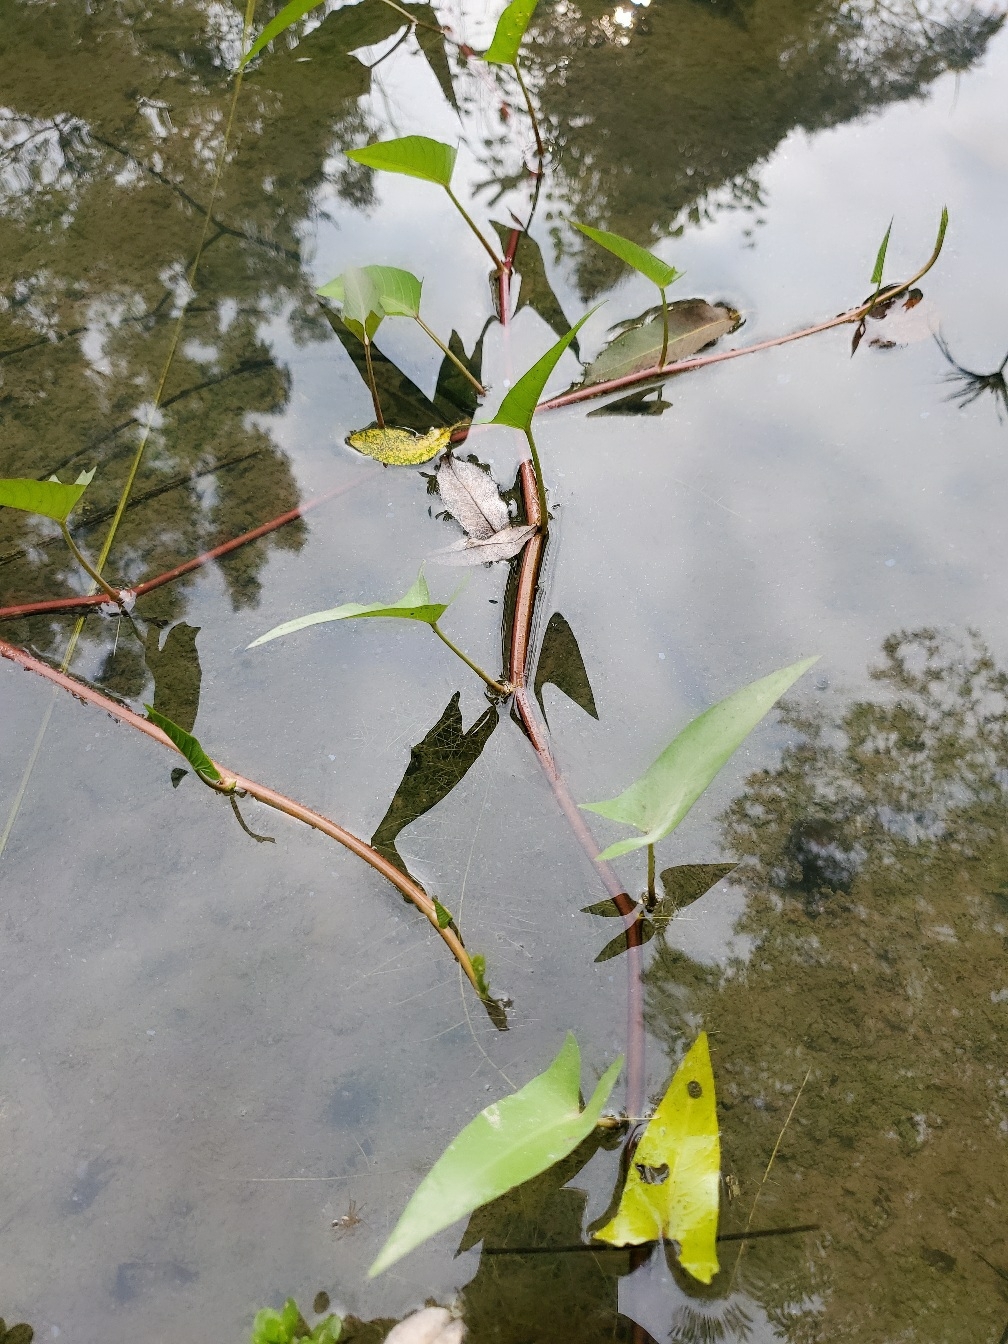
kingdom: Plantae
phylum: Tracheophyta
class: Magnoliopsida
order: Solanales
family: Convolvulaceae
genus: Ipomoea
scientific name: Ipomoea aquatica
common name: Swamp morning-glory
